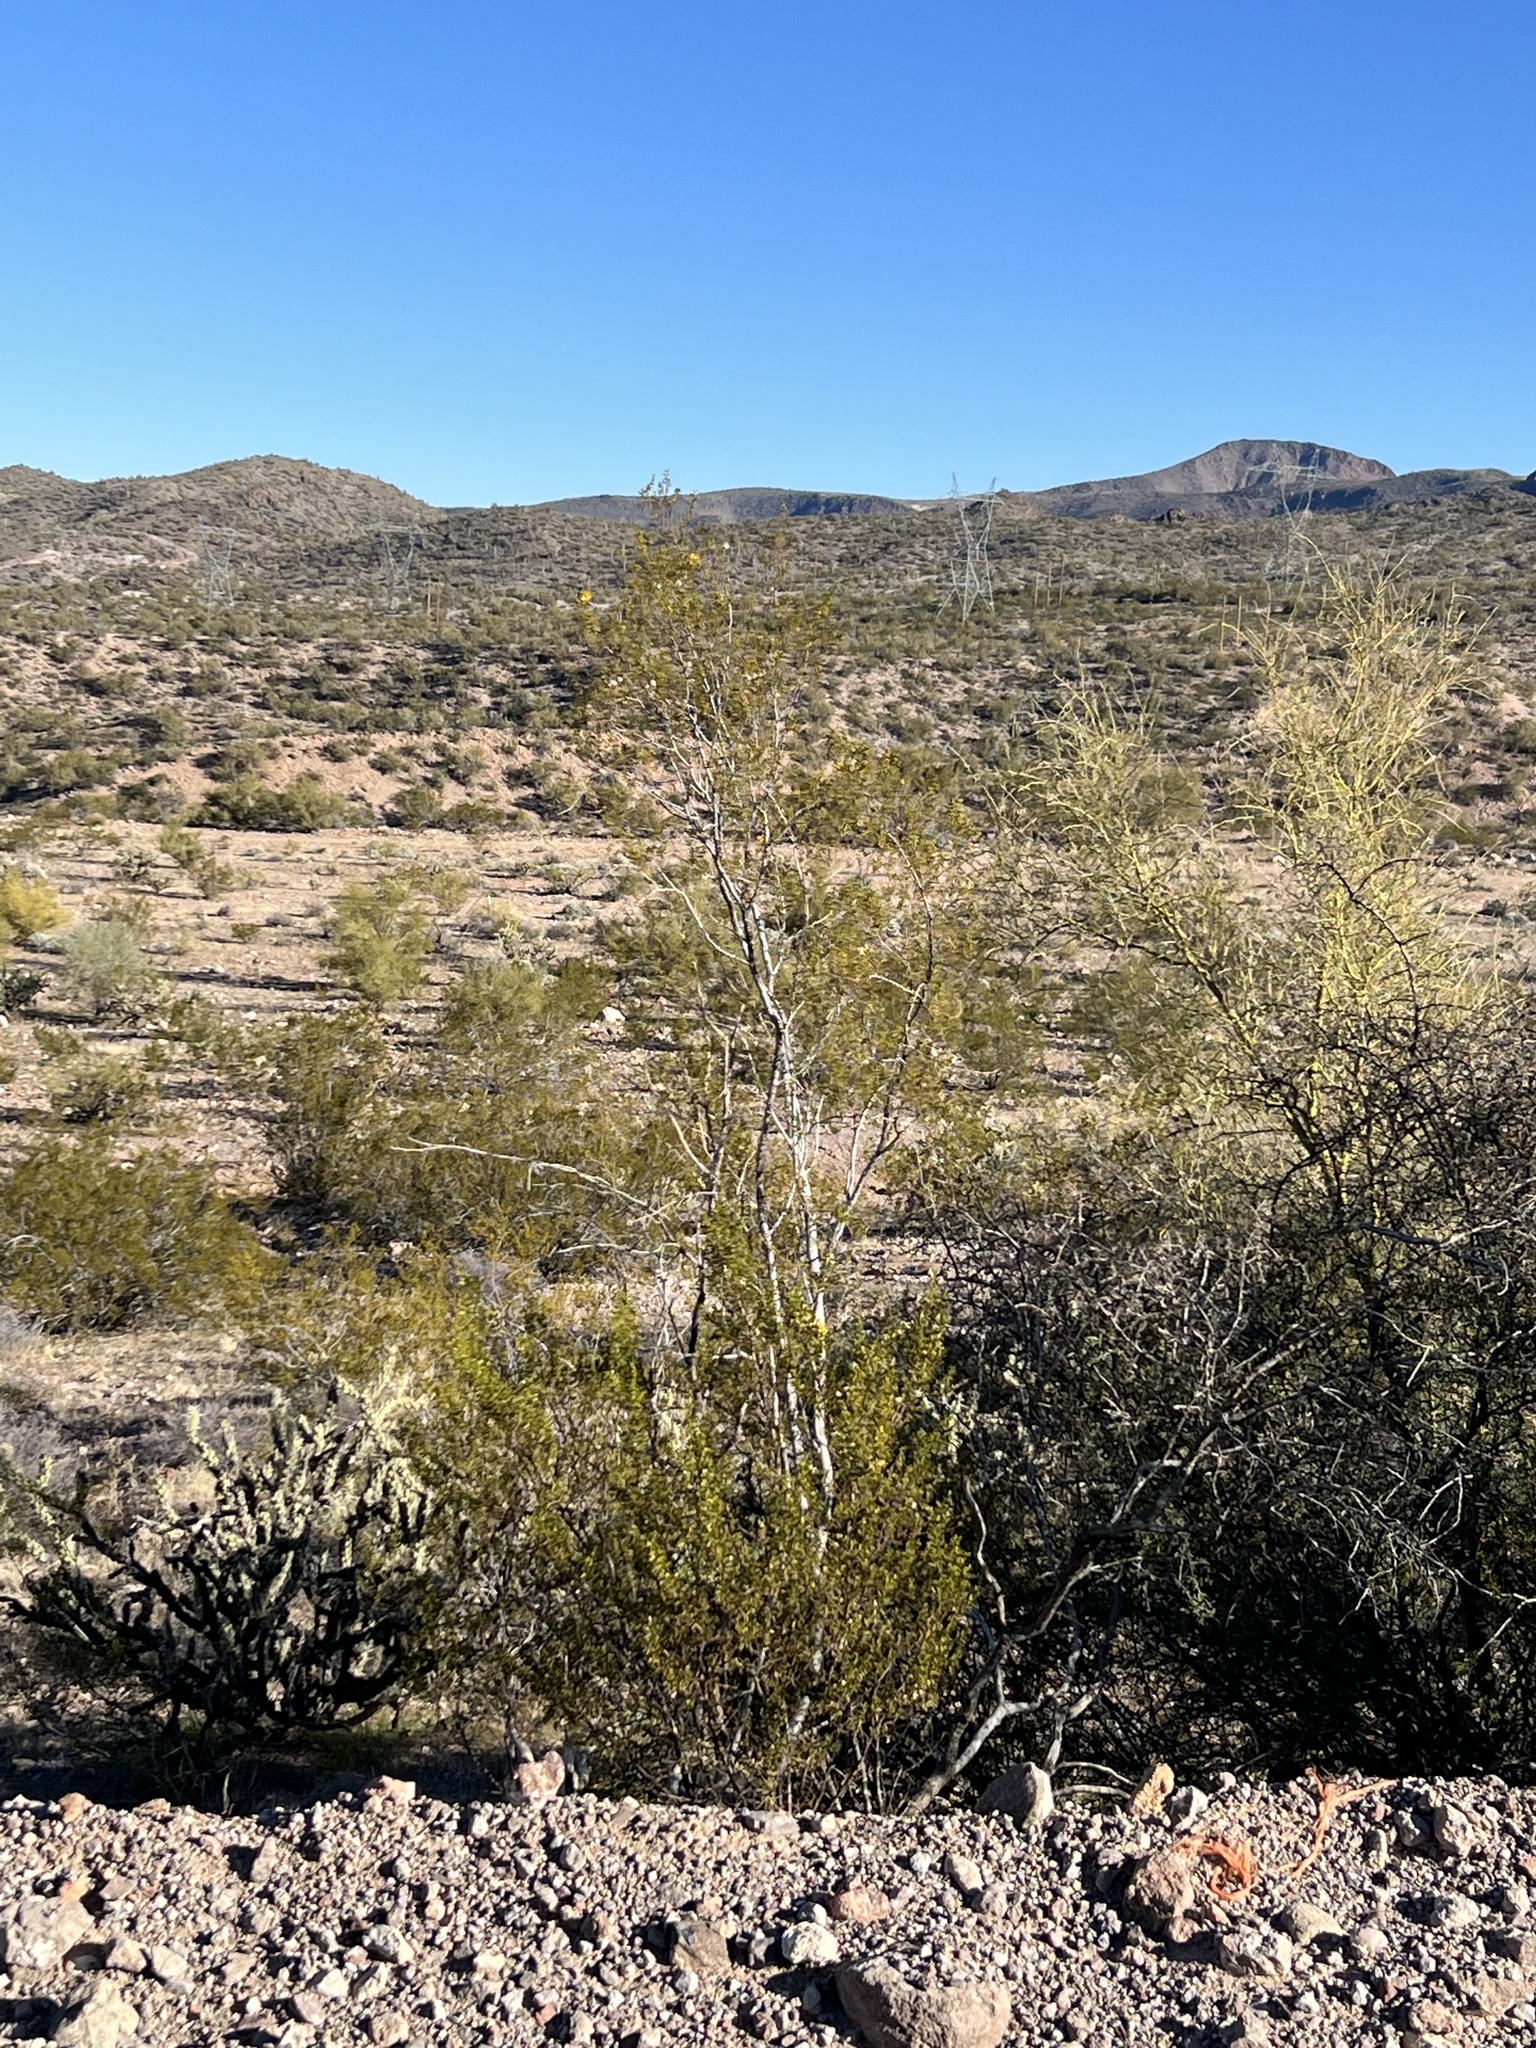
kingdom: Plantae
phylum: Tracheophyta
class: Magnoliopsida
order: Zygophyllales
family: Zygophyllaceae
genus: Larrea
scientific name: Larrea tridentata
